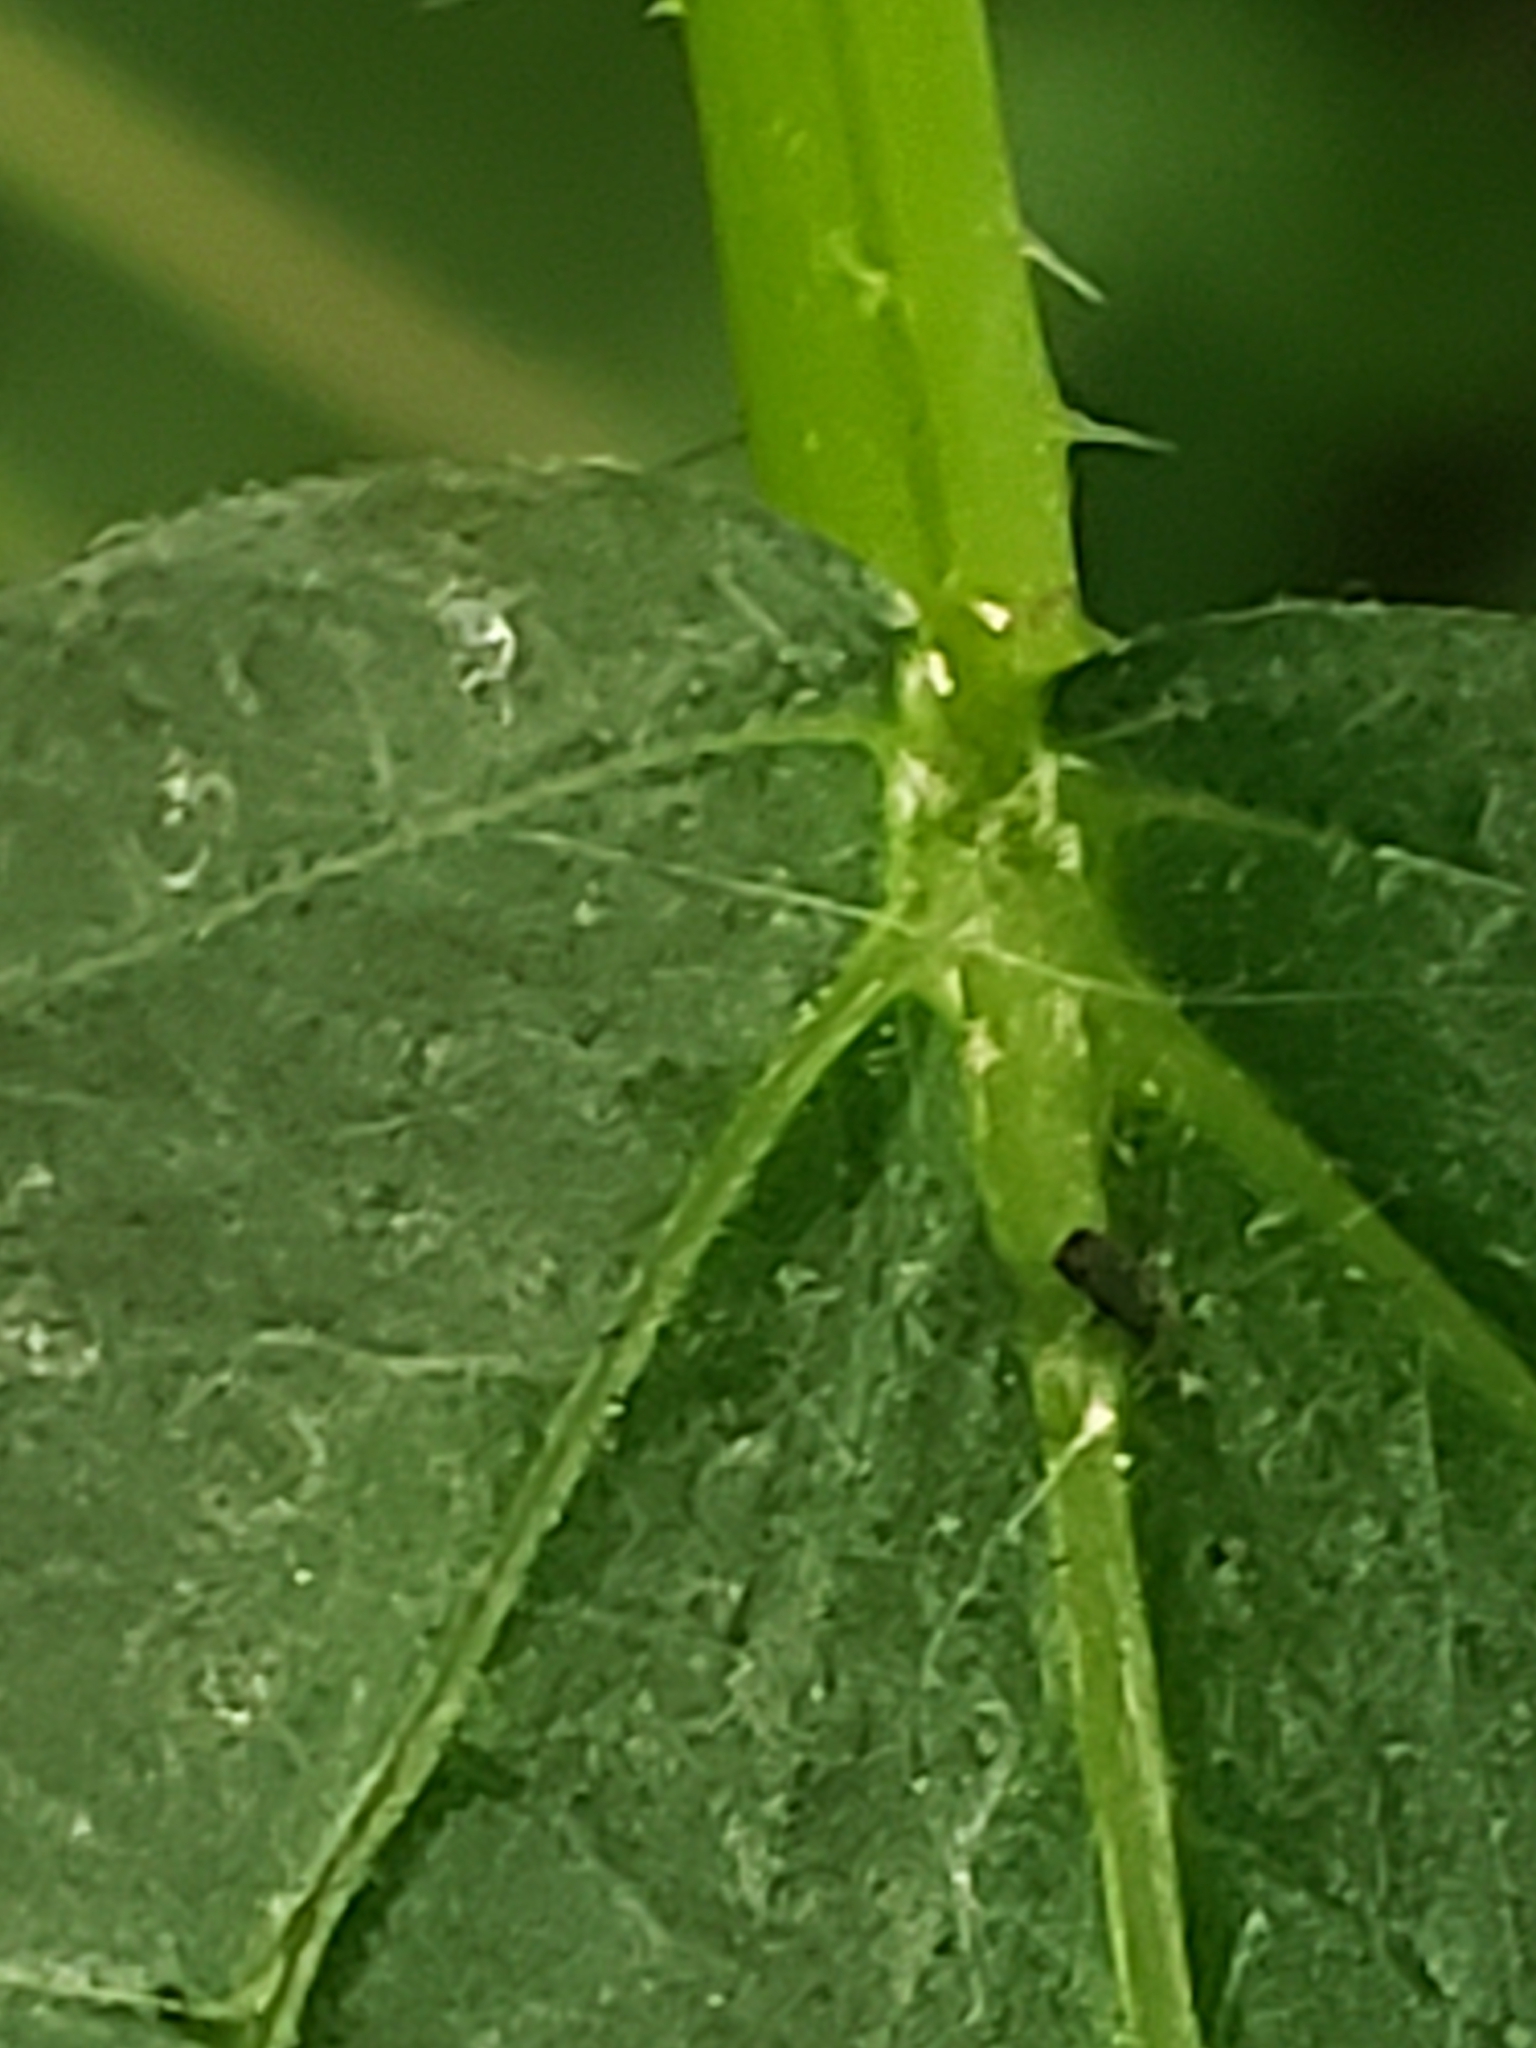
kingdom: Animalia
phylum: Arthropoda
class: Insecta
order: Lepidoptera
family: Erebidae
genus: Halysidota
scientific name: Halysidota tessellaris
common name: Banded tussock moth
